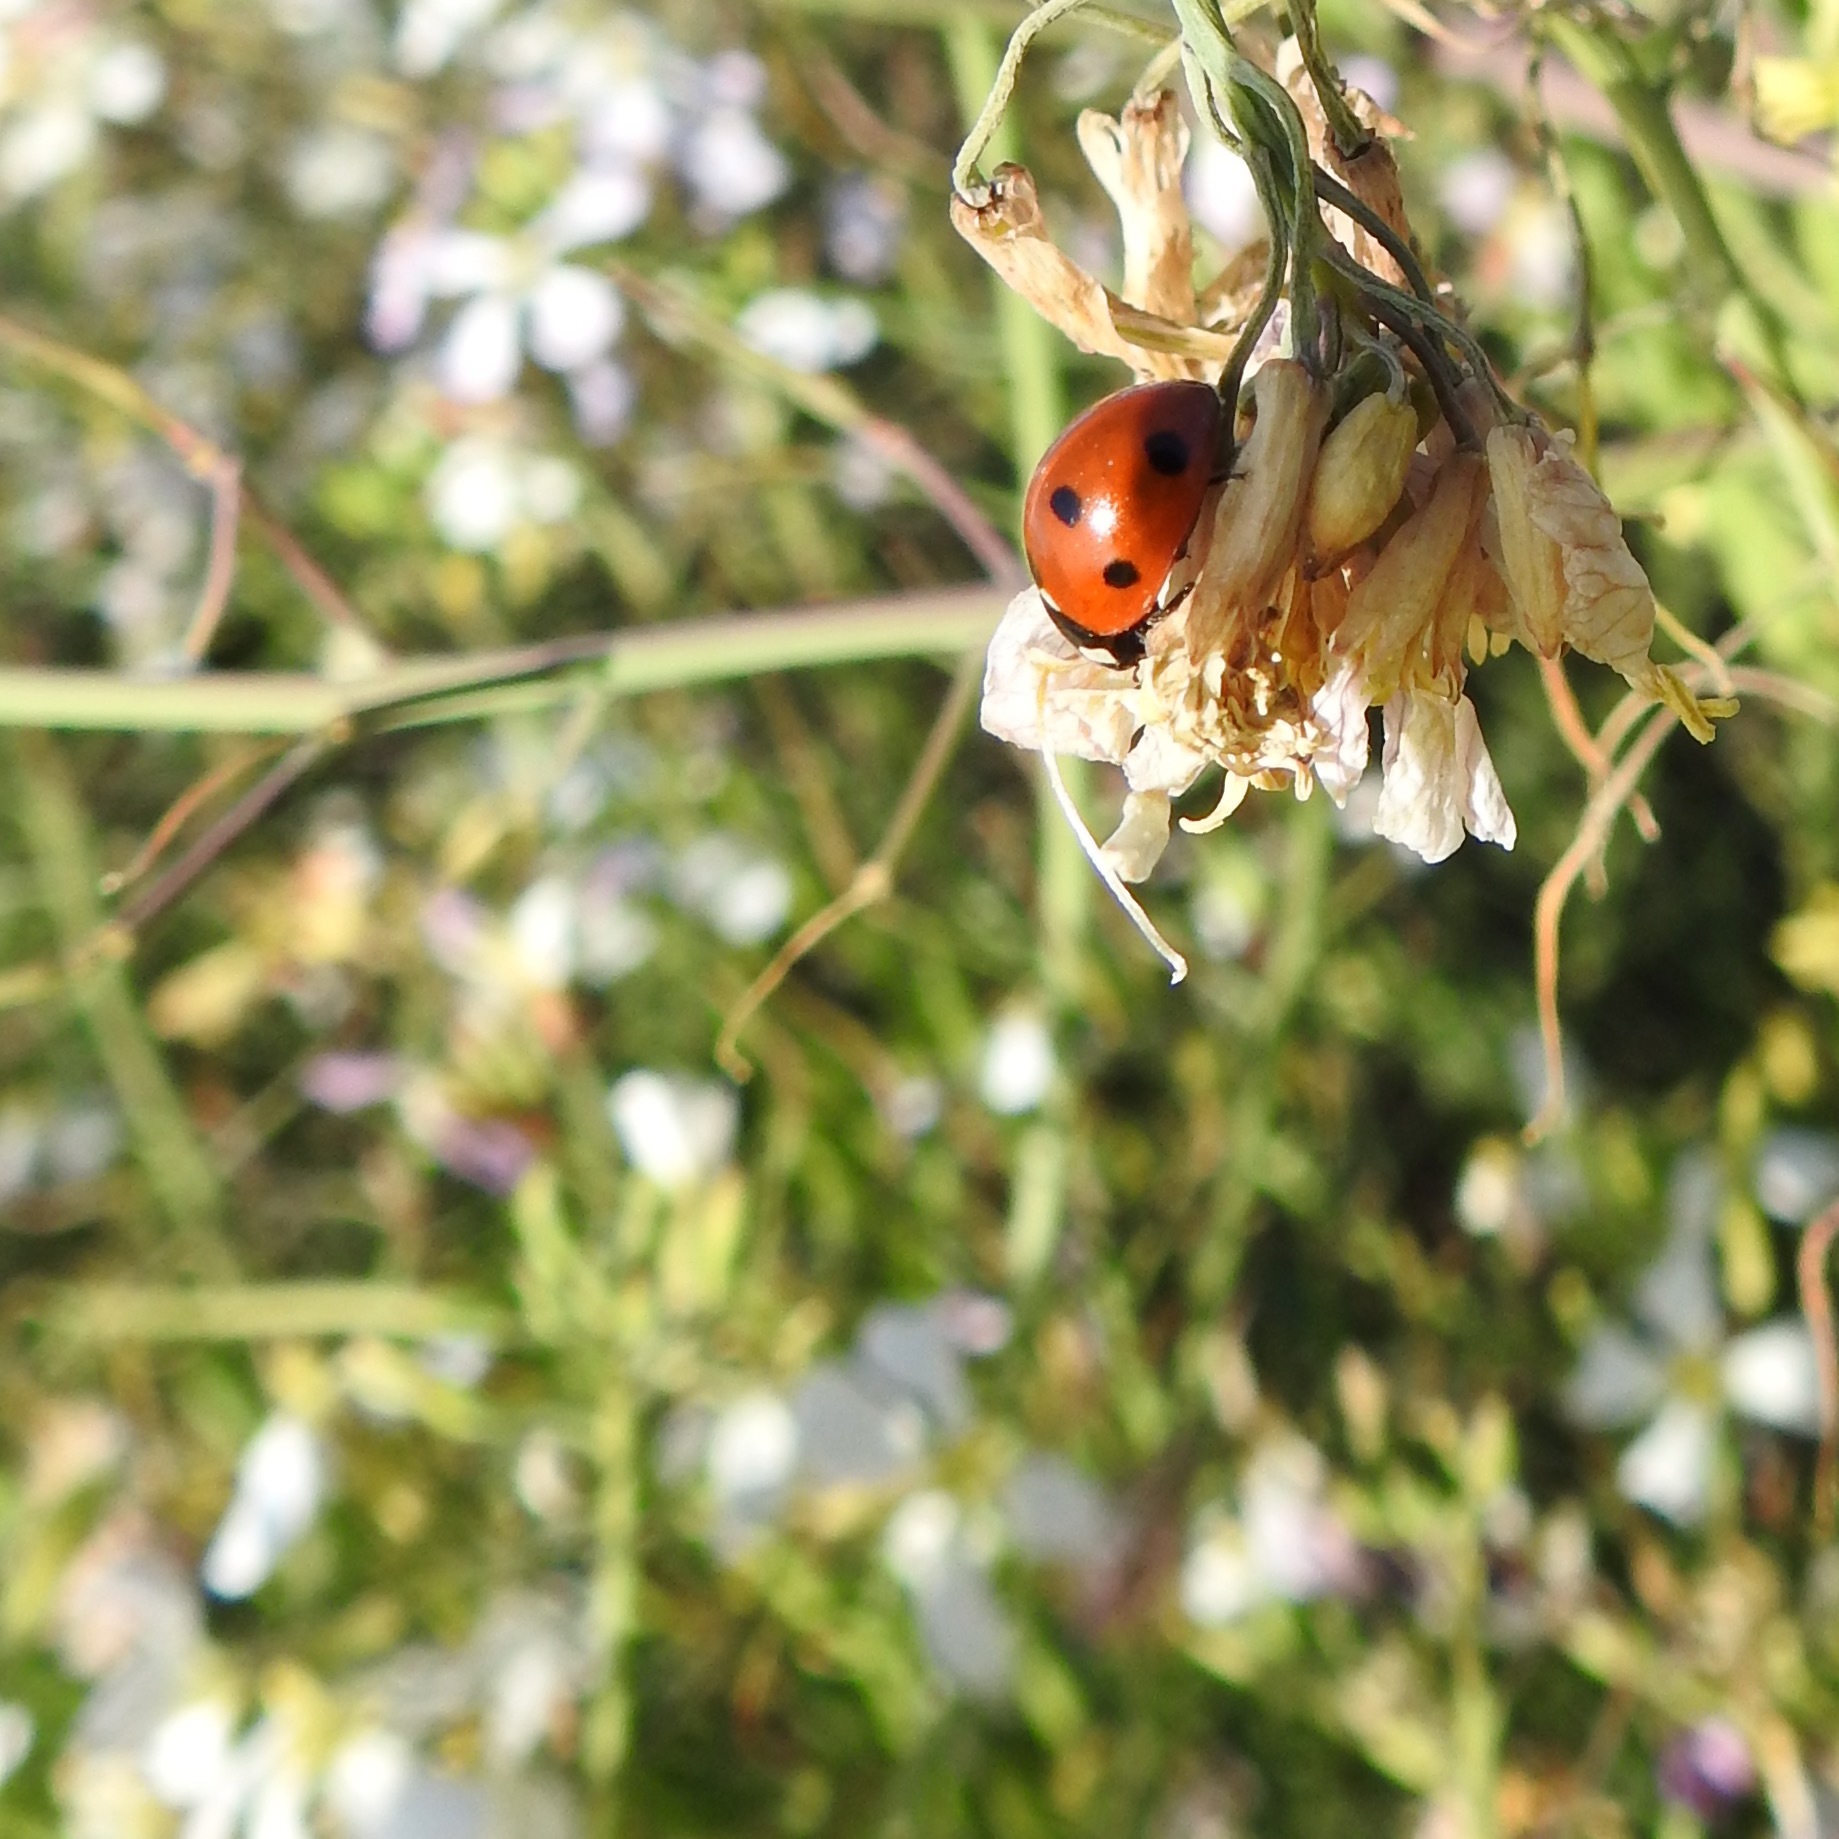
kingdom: Animalia
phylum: Arthropoda
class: Insecta
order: Coleoptera
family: Coccinellidae
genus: Coccinella
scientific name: Coccinella septempunctata
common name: Sevenspotted lady beetle
